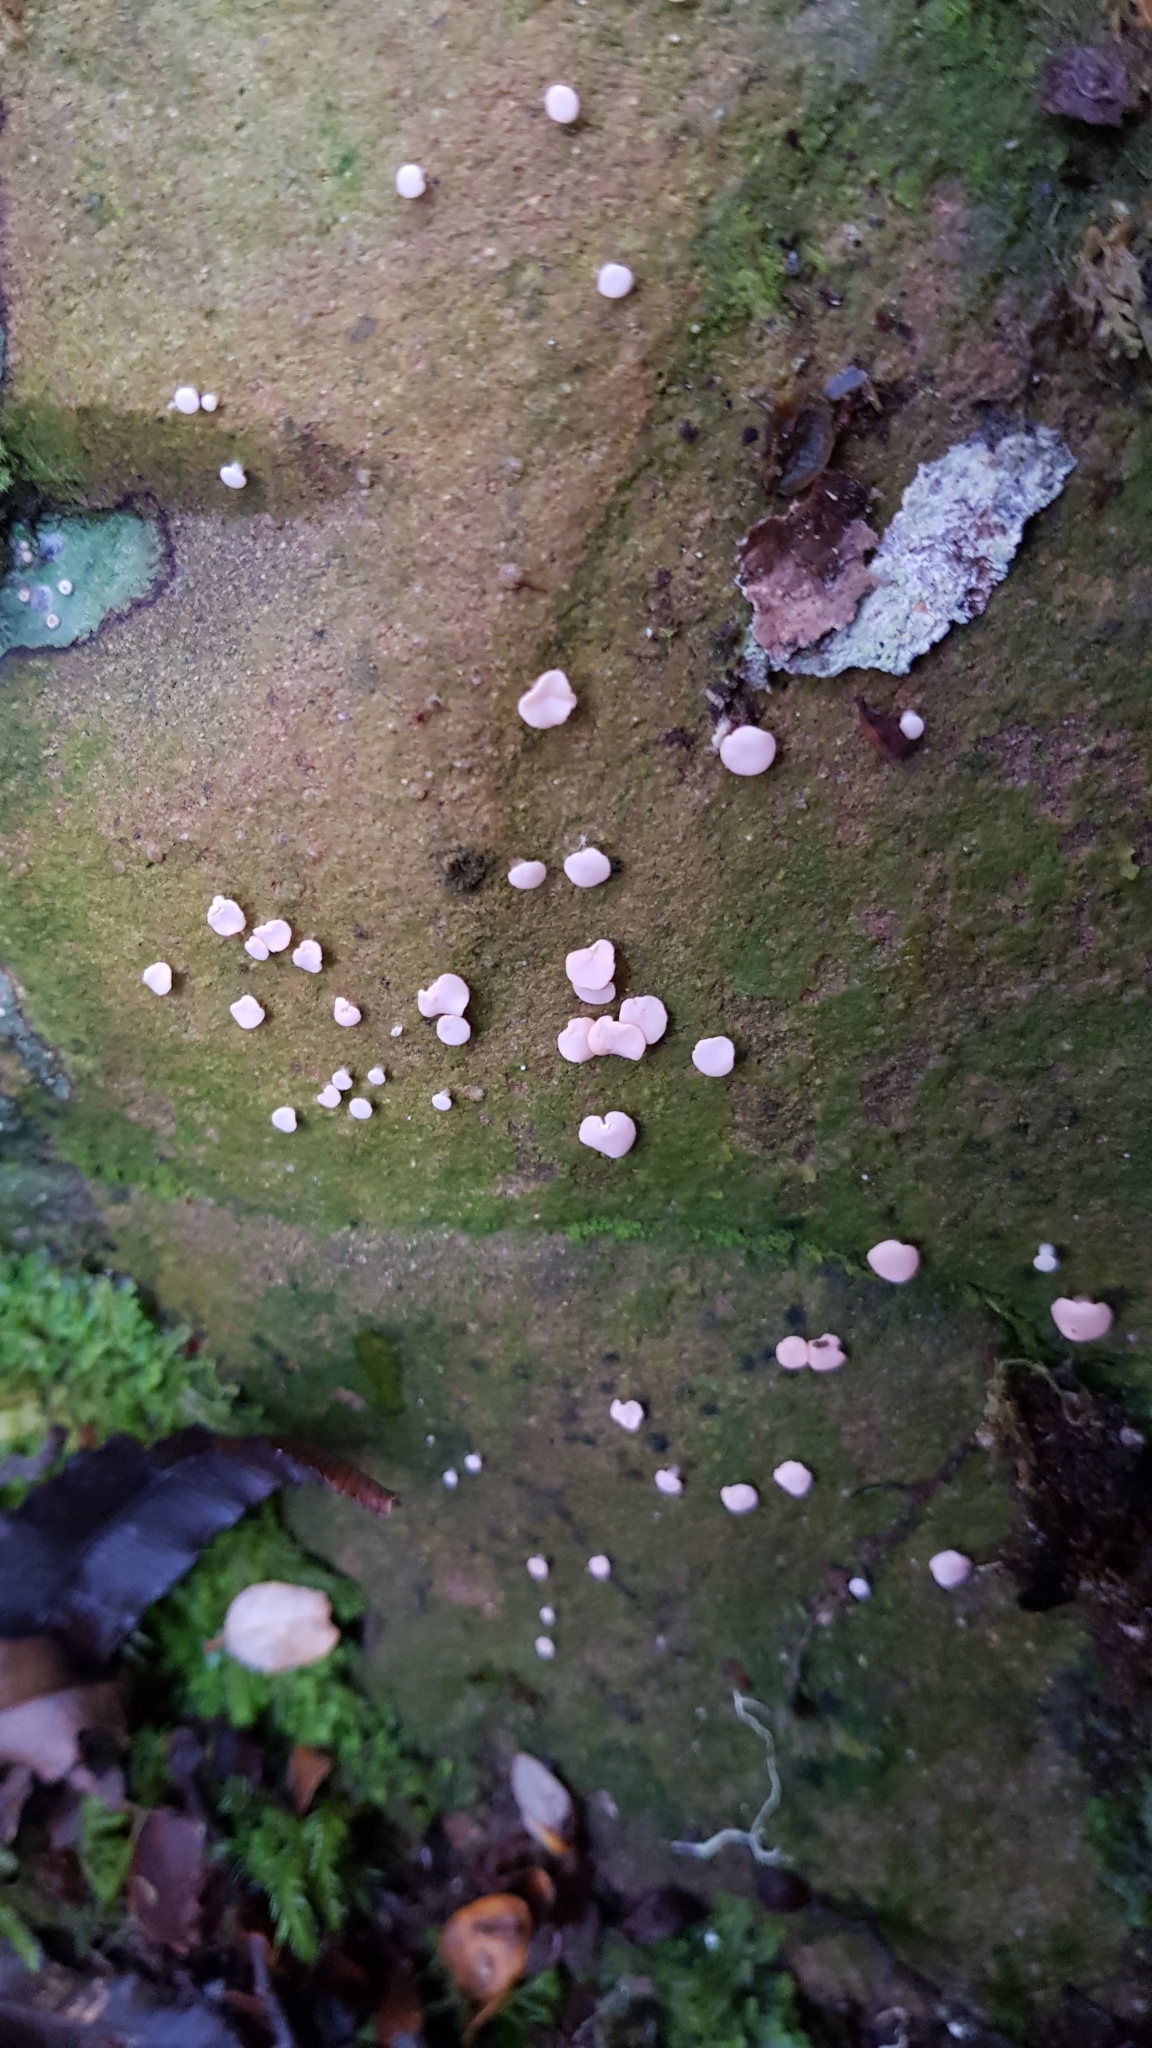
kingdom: Fungi
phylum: Ascomycota
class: Lecanoromycetes
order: Pertusariales
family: Icmadophilaceae
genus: Dibaeis
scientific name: Dibaeis absoluta
